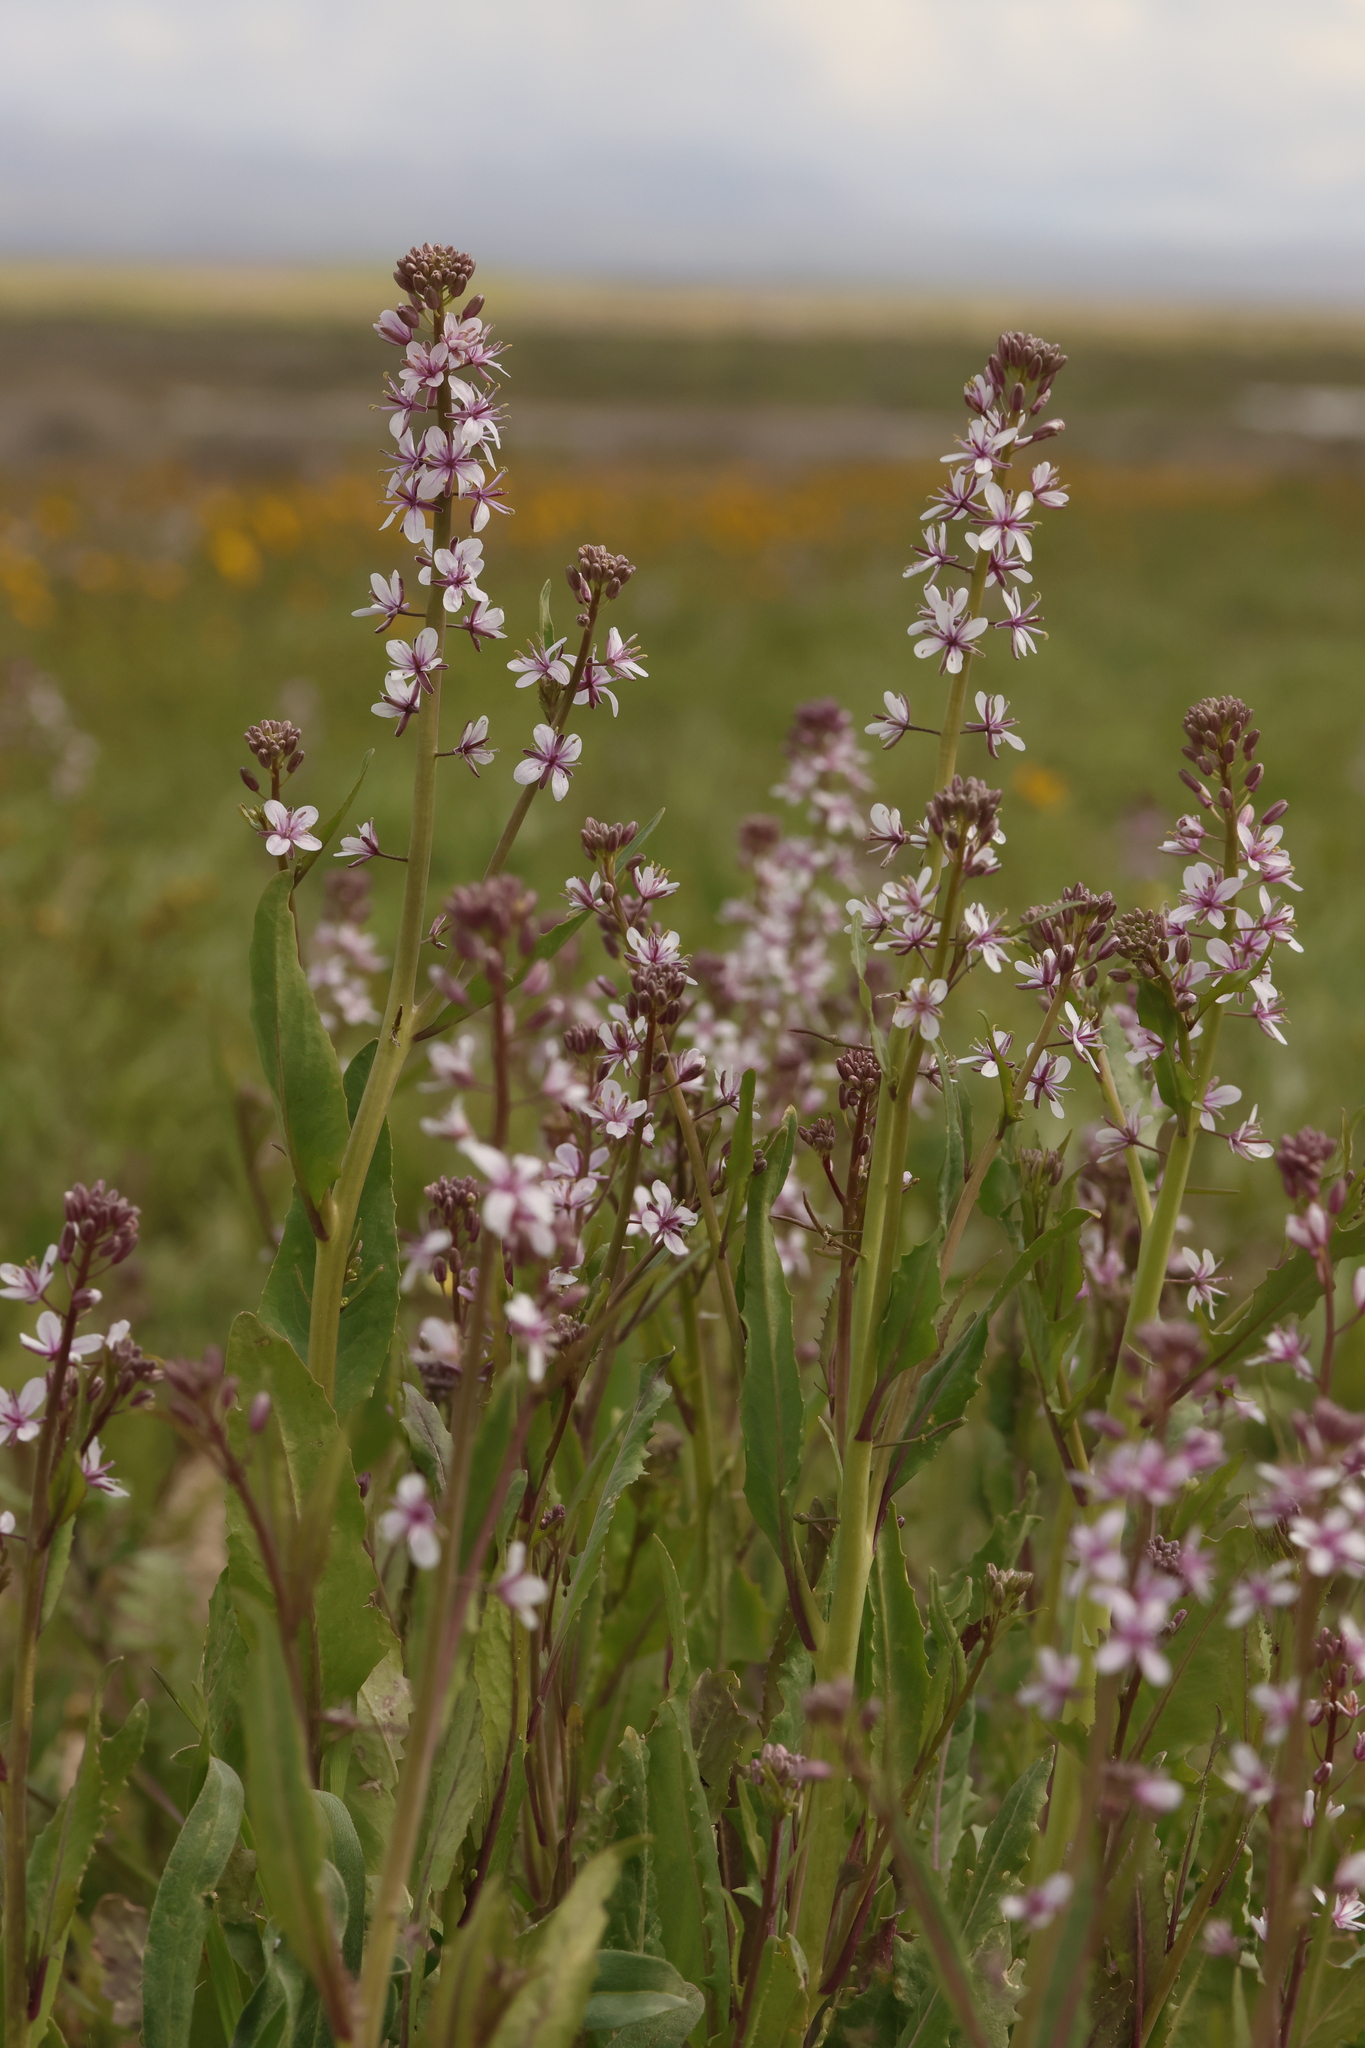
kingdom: Plantae
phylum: Tracheophyta
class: Magnoliopsida
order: Brassicales
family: Brassicaceae
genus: Streptanthus
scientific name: Streptanthus anceps
